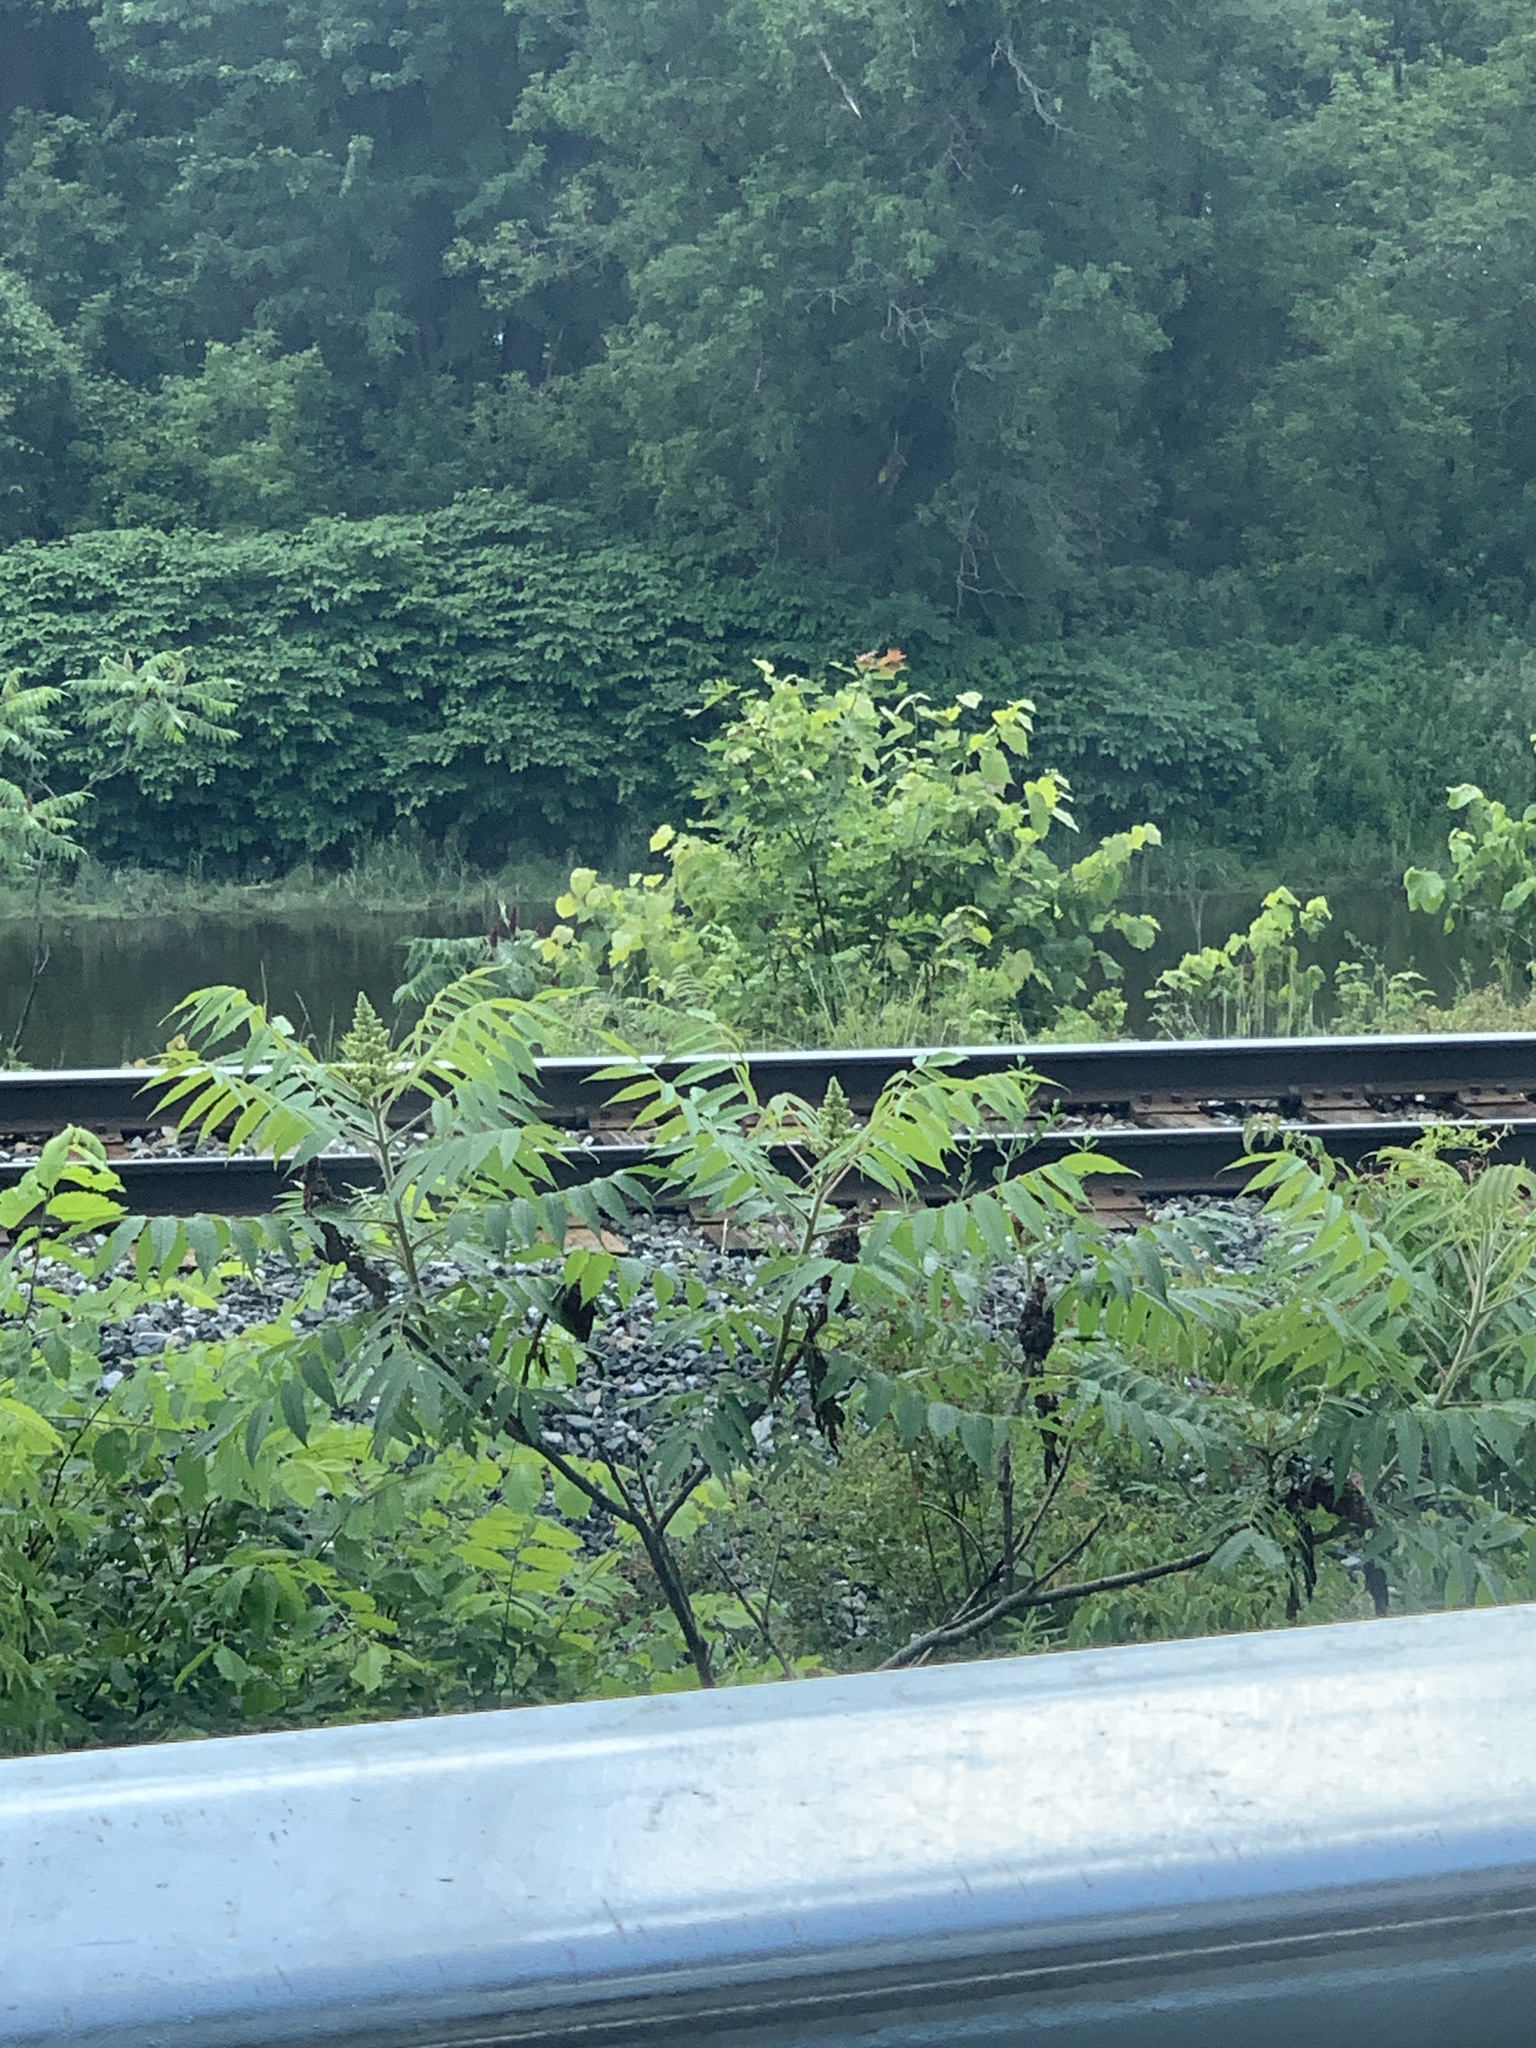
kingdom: Plantae
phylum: Tracheophyta
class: Magnoliopsida
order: Sapindales
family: Anacardiaceae
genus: Rhus
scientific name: Rhus typhina
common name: Staghorn sumac
